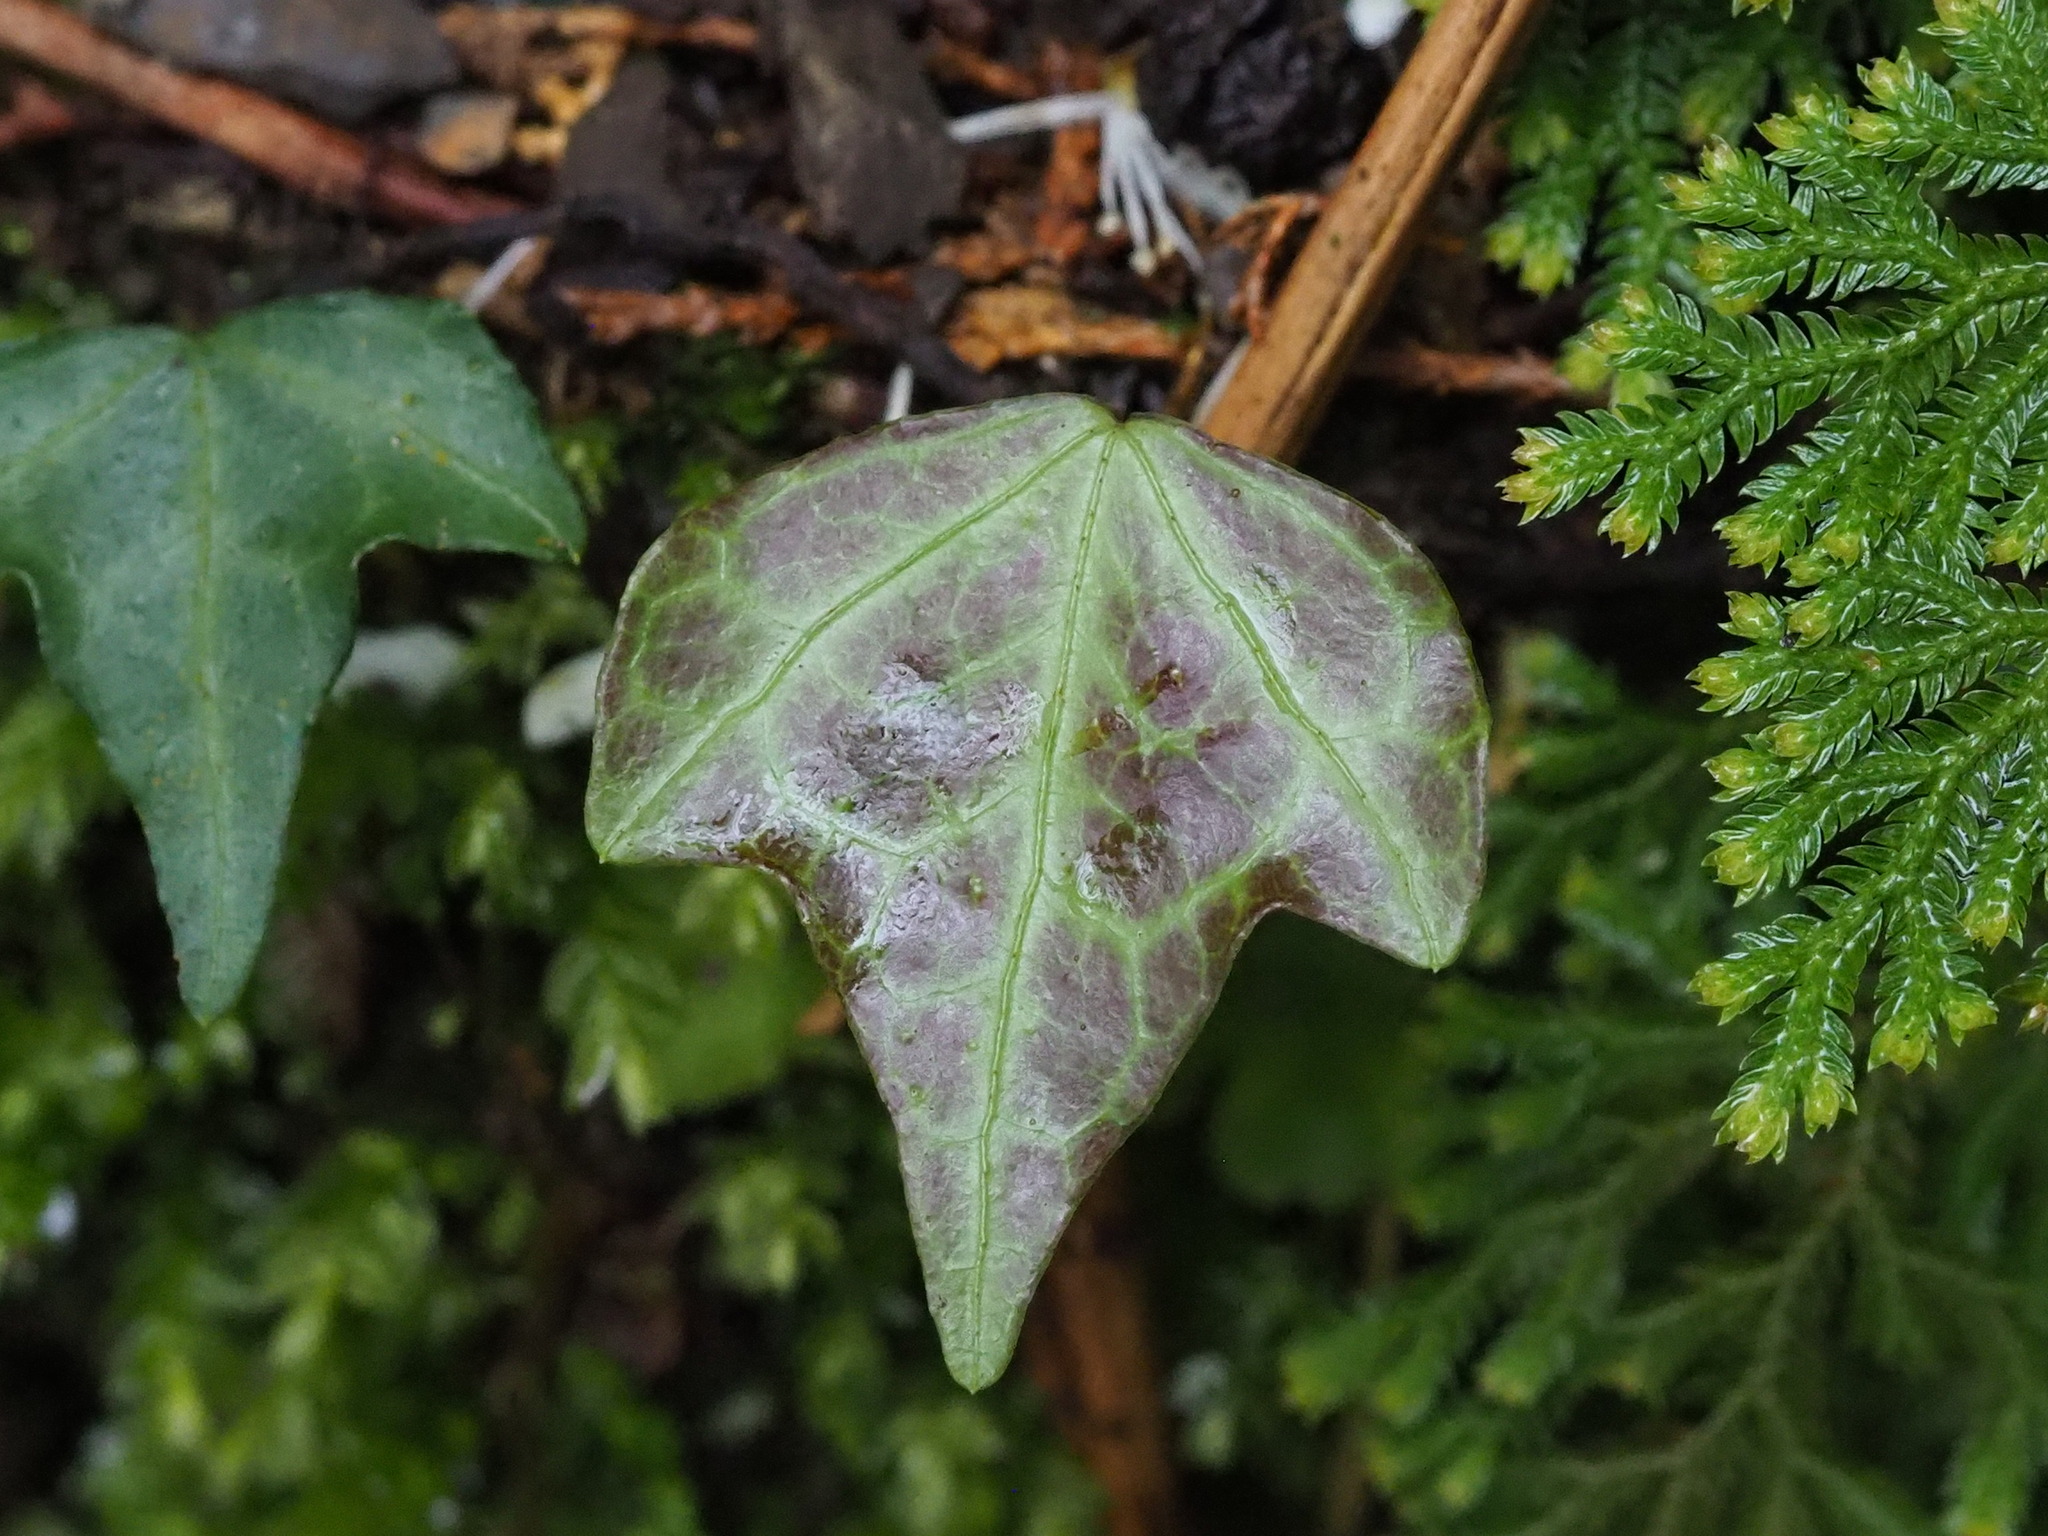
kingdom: Plantae
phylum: Tracheophyta
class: Magnoliopsida
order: Apiales
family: Araliaceae
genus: Hedera
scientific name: Hedera rhombea
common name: Japanese ivy
